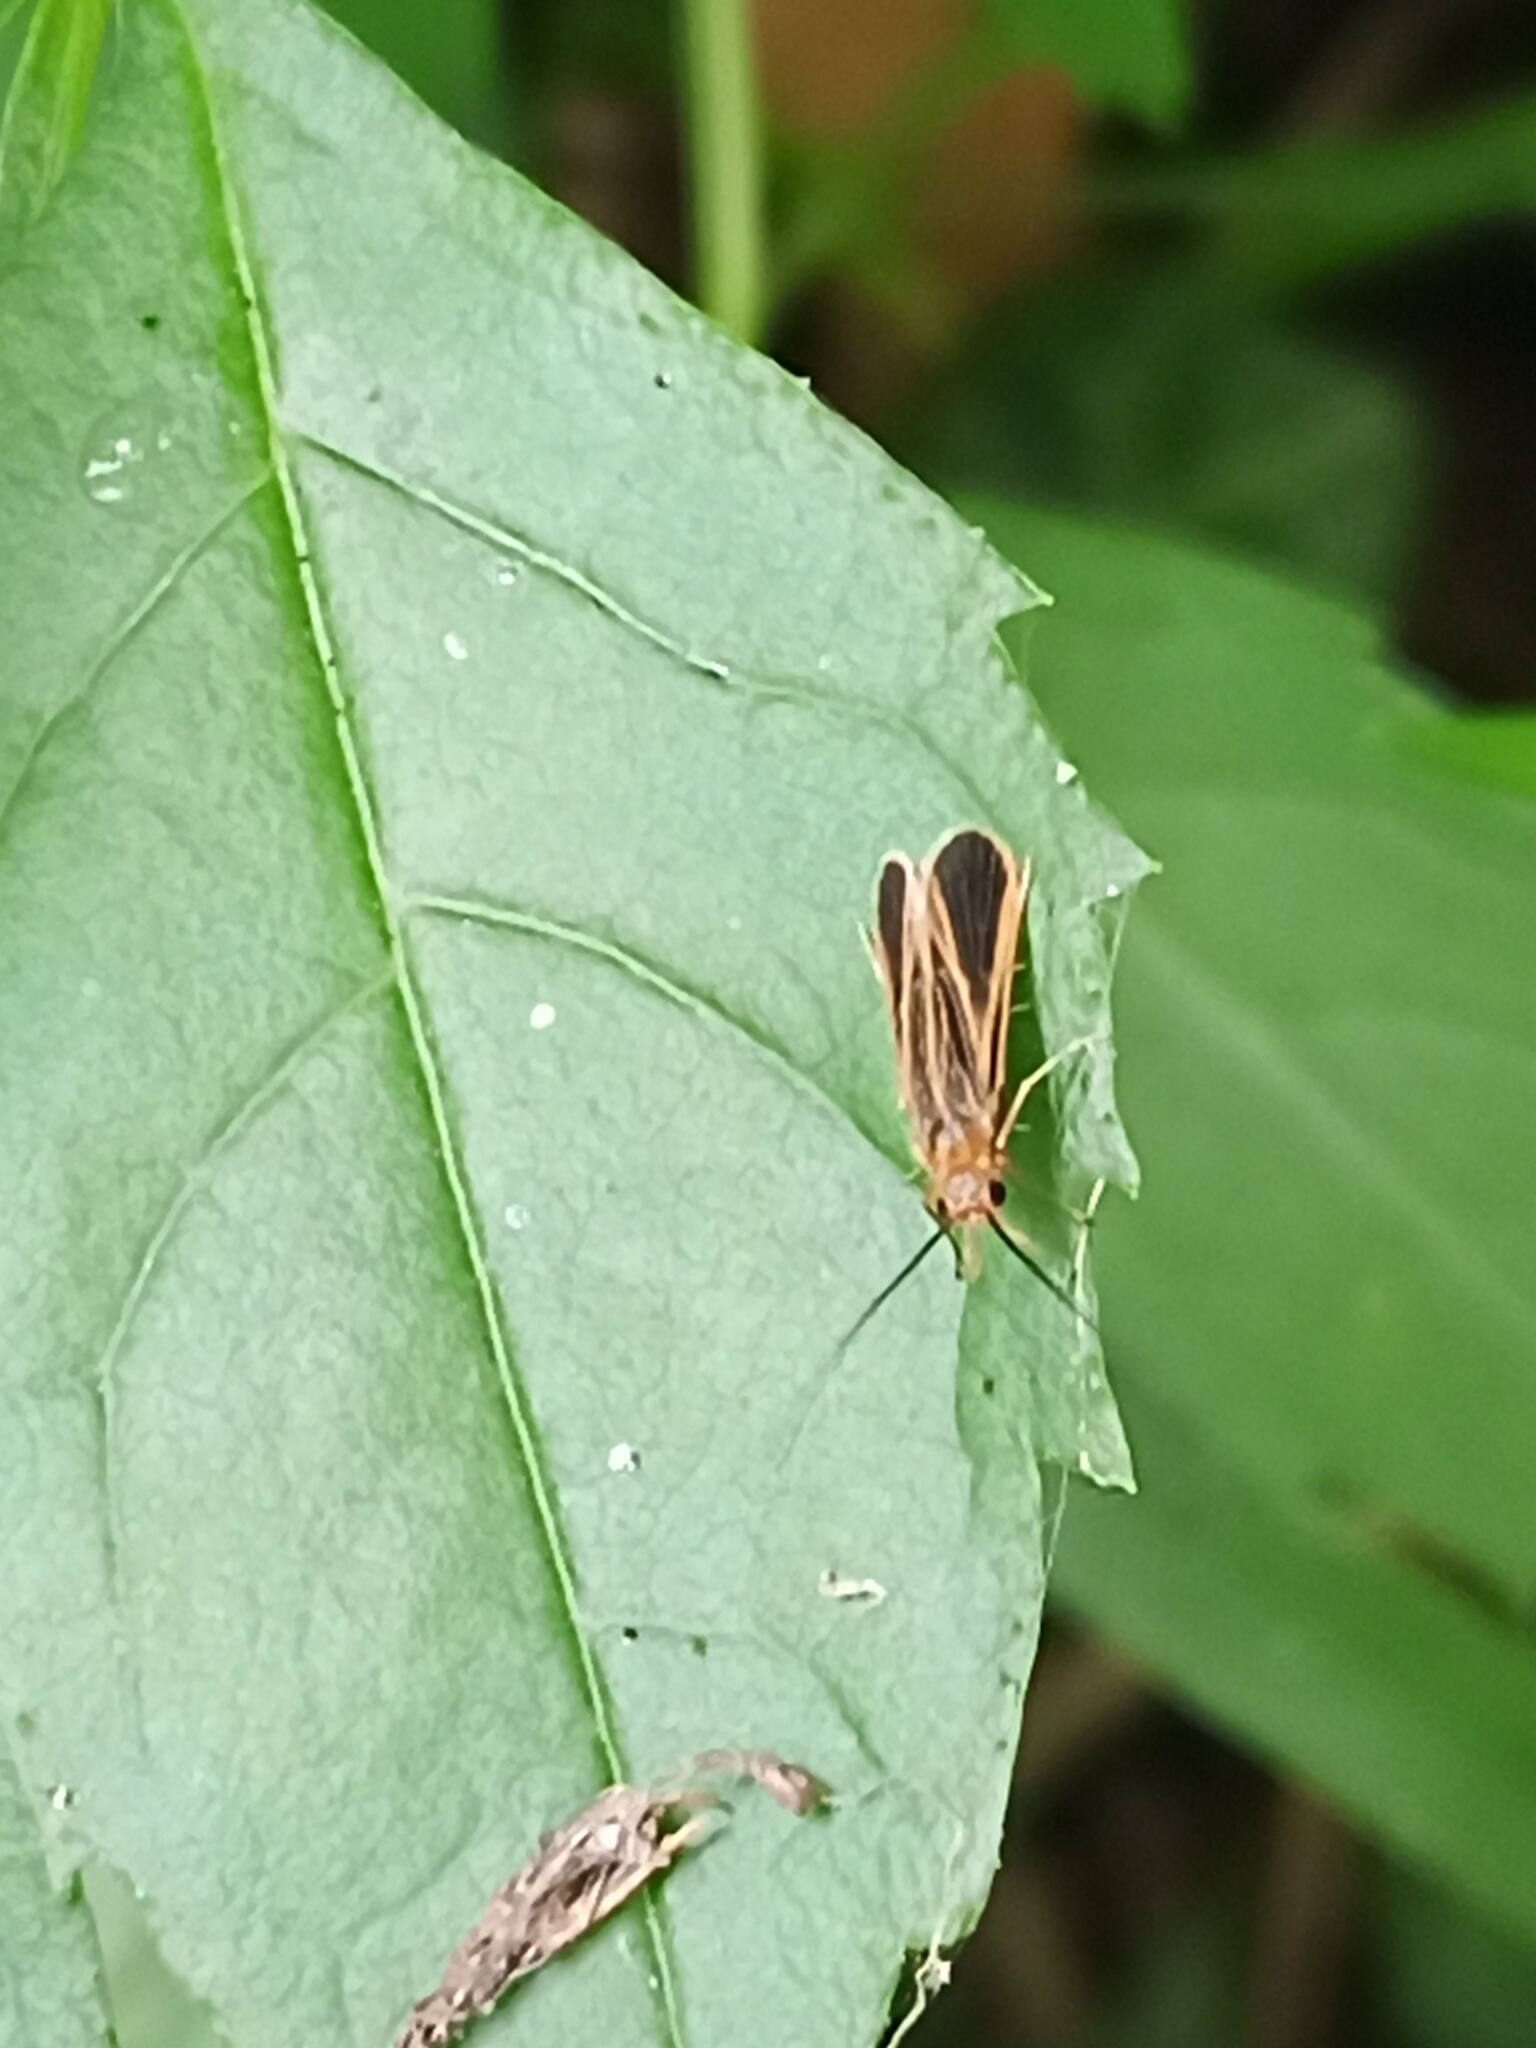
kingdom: Animalia
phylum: Arthropoda
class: Insecta
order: Trichoptera
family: Philopotamidae
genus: Chimarra
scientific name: Chimarra marginata
